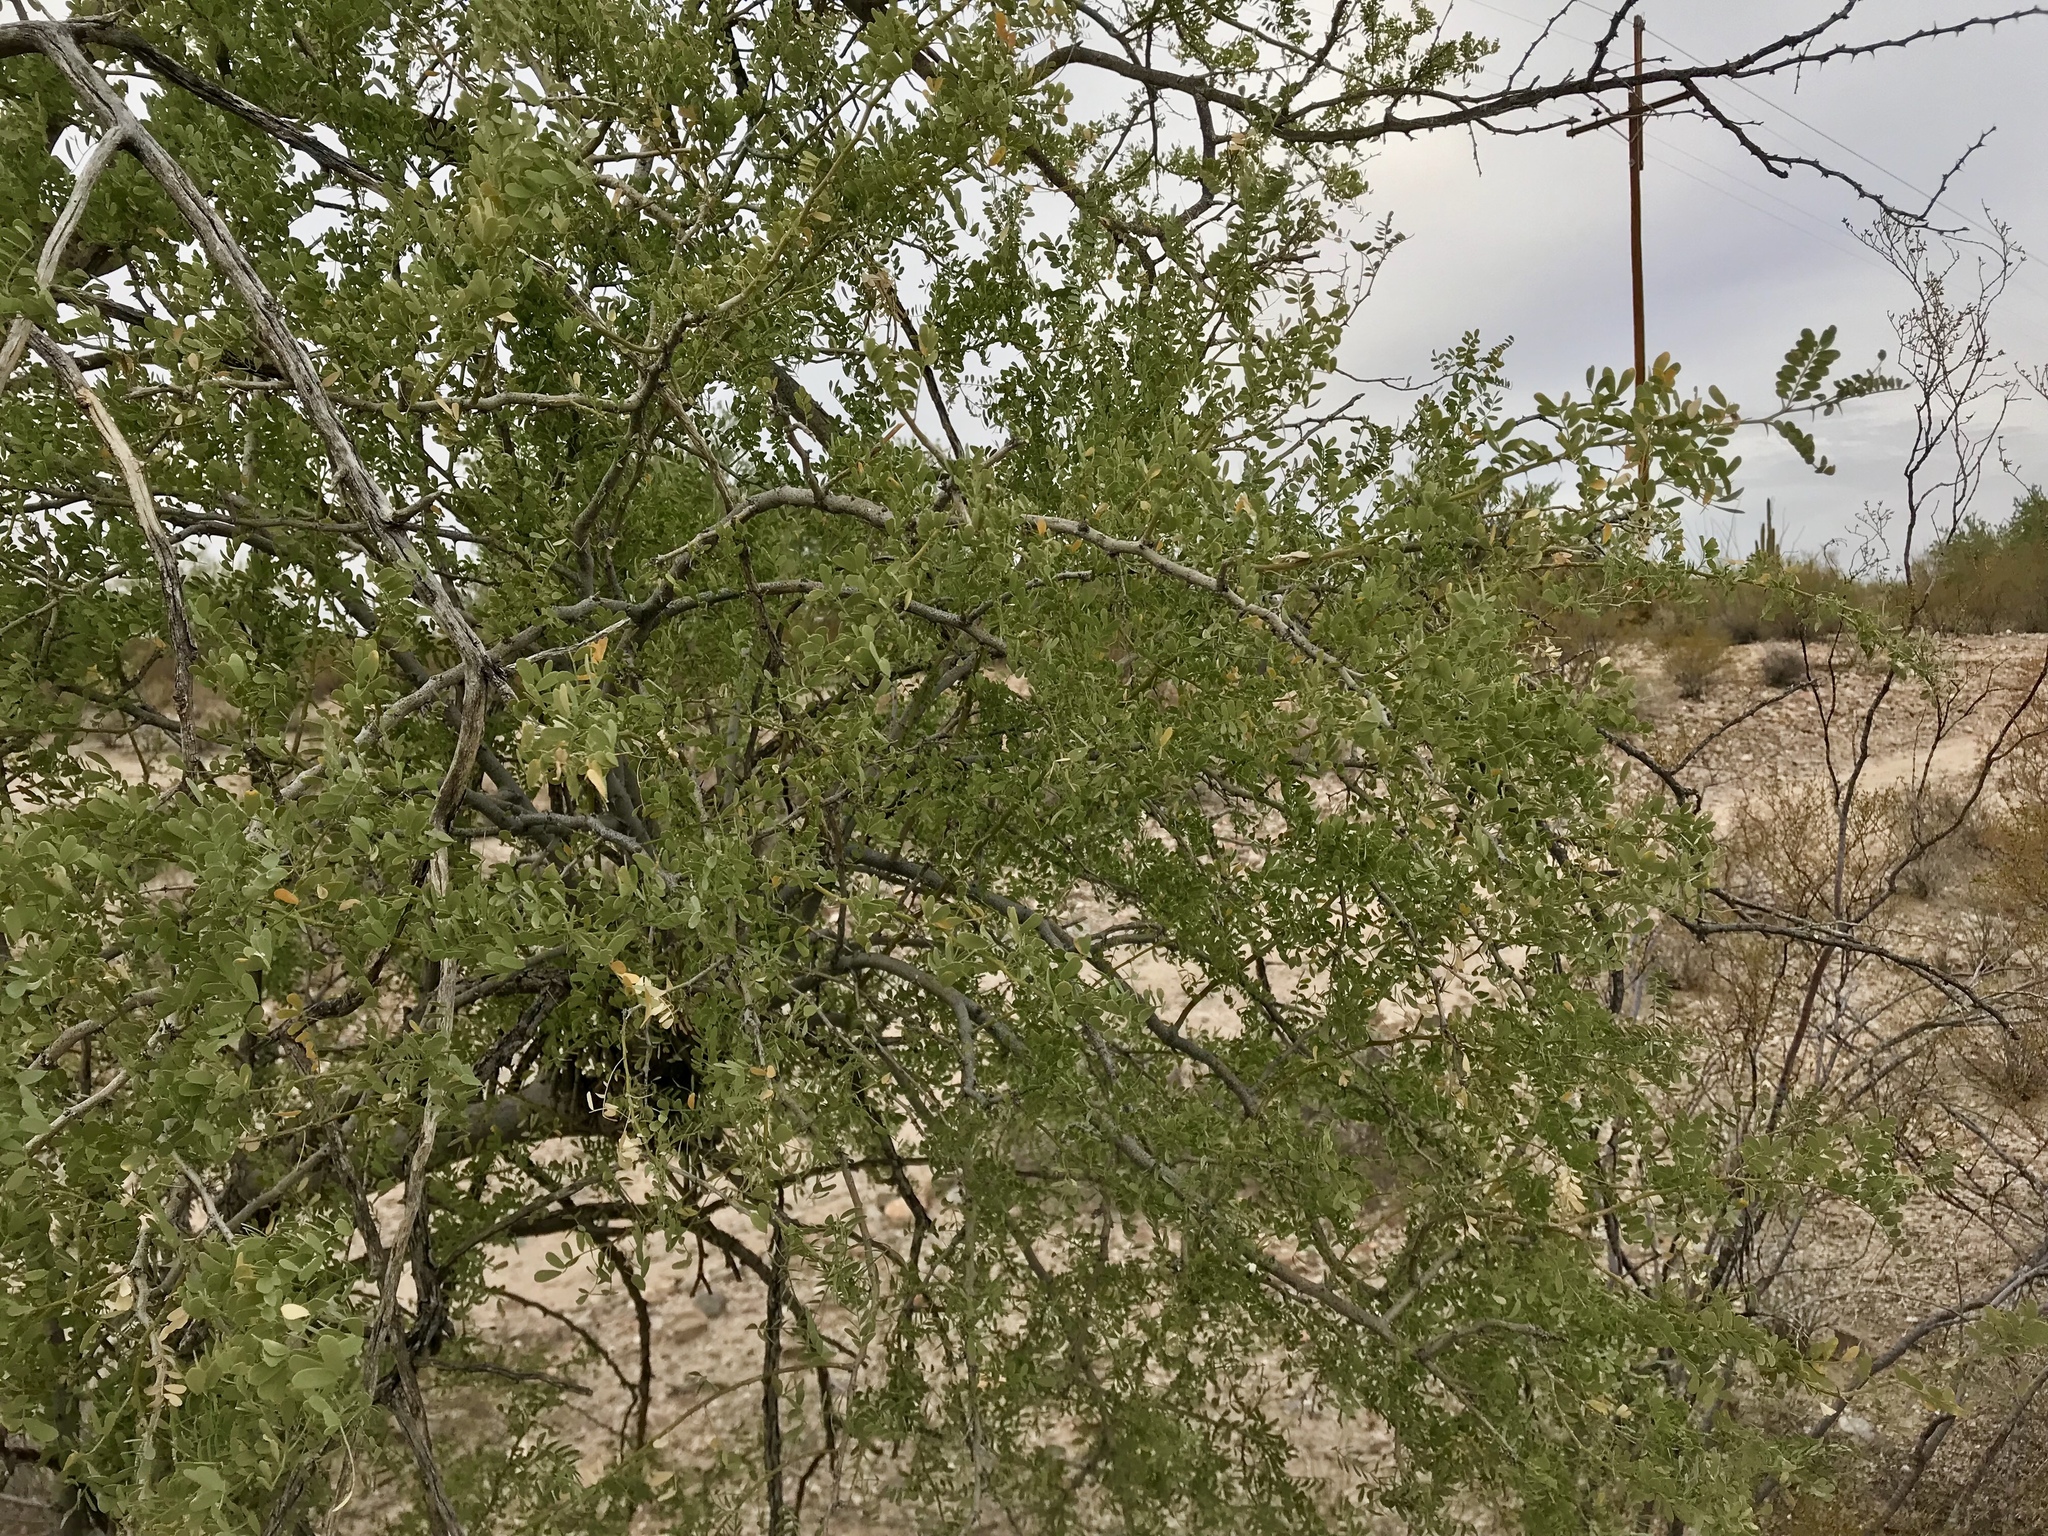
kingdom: Plantae
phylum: Tracheophyta
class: Magnoliopsida
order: Fabales
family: Fabaceae
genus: Olneya
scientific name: Olneya tesota
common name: Desert ironwood
